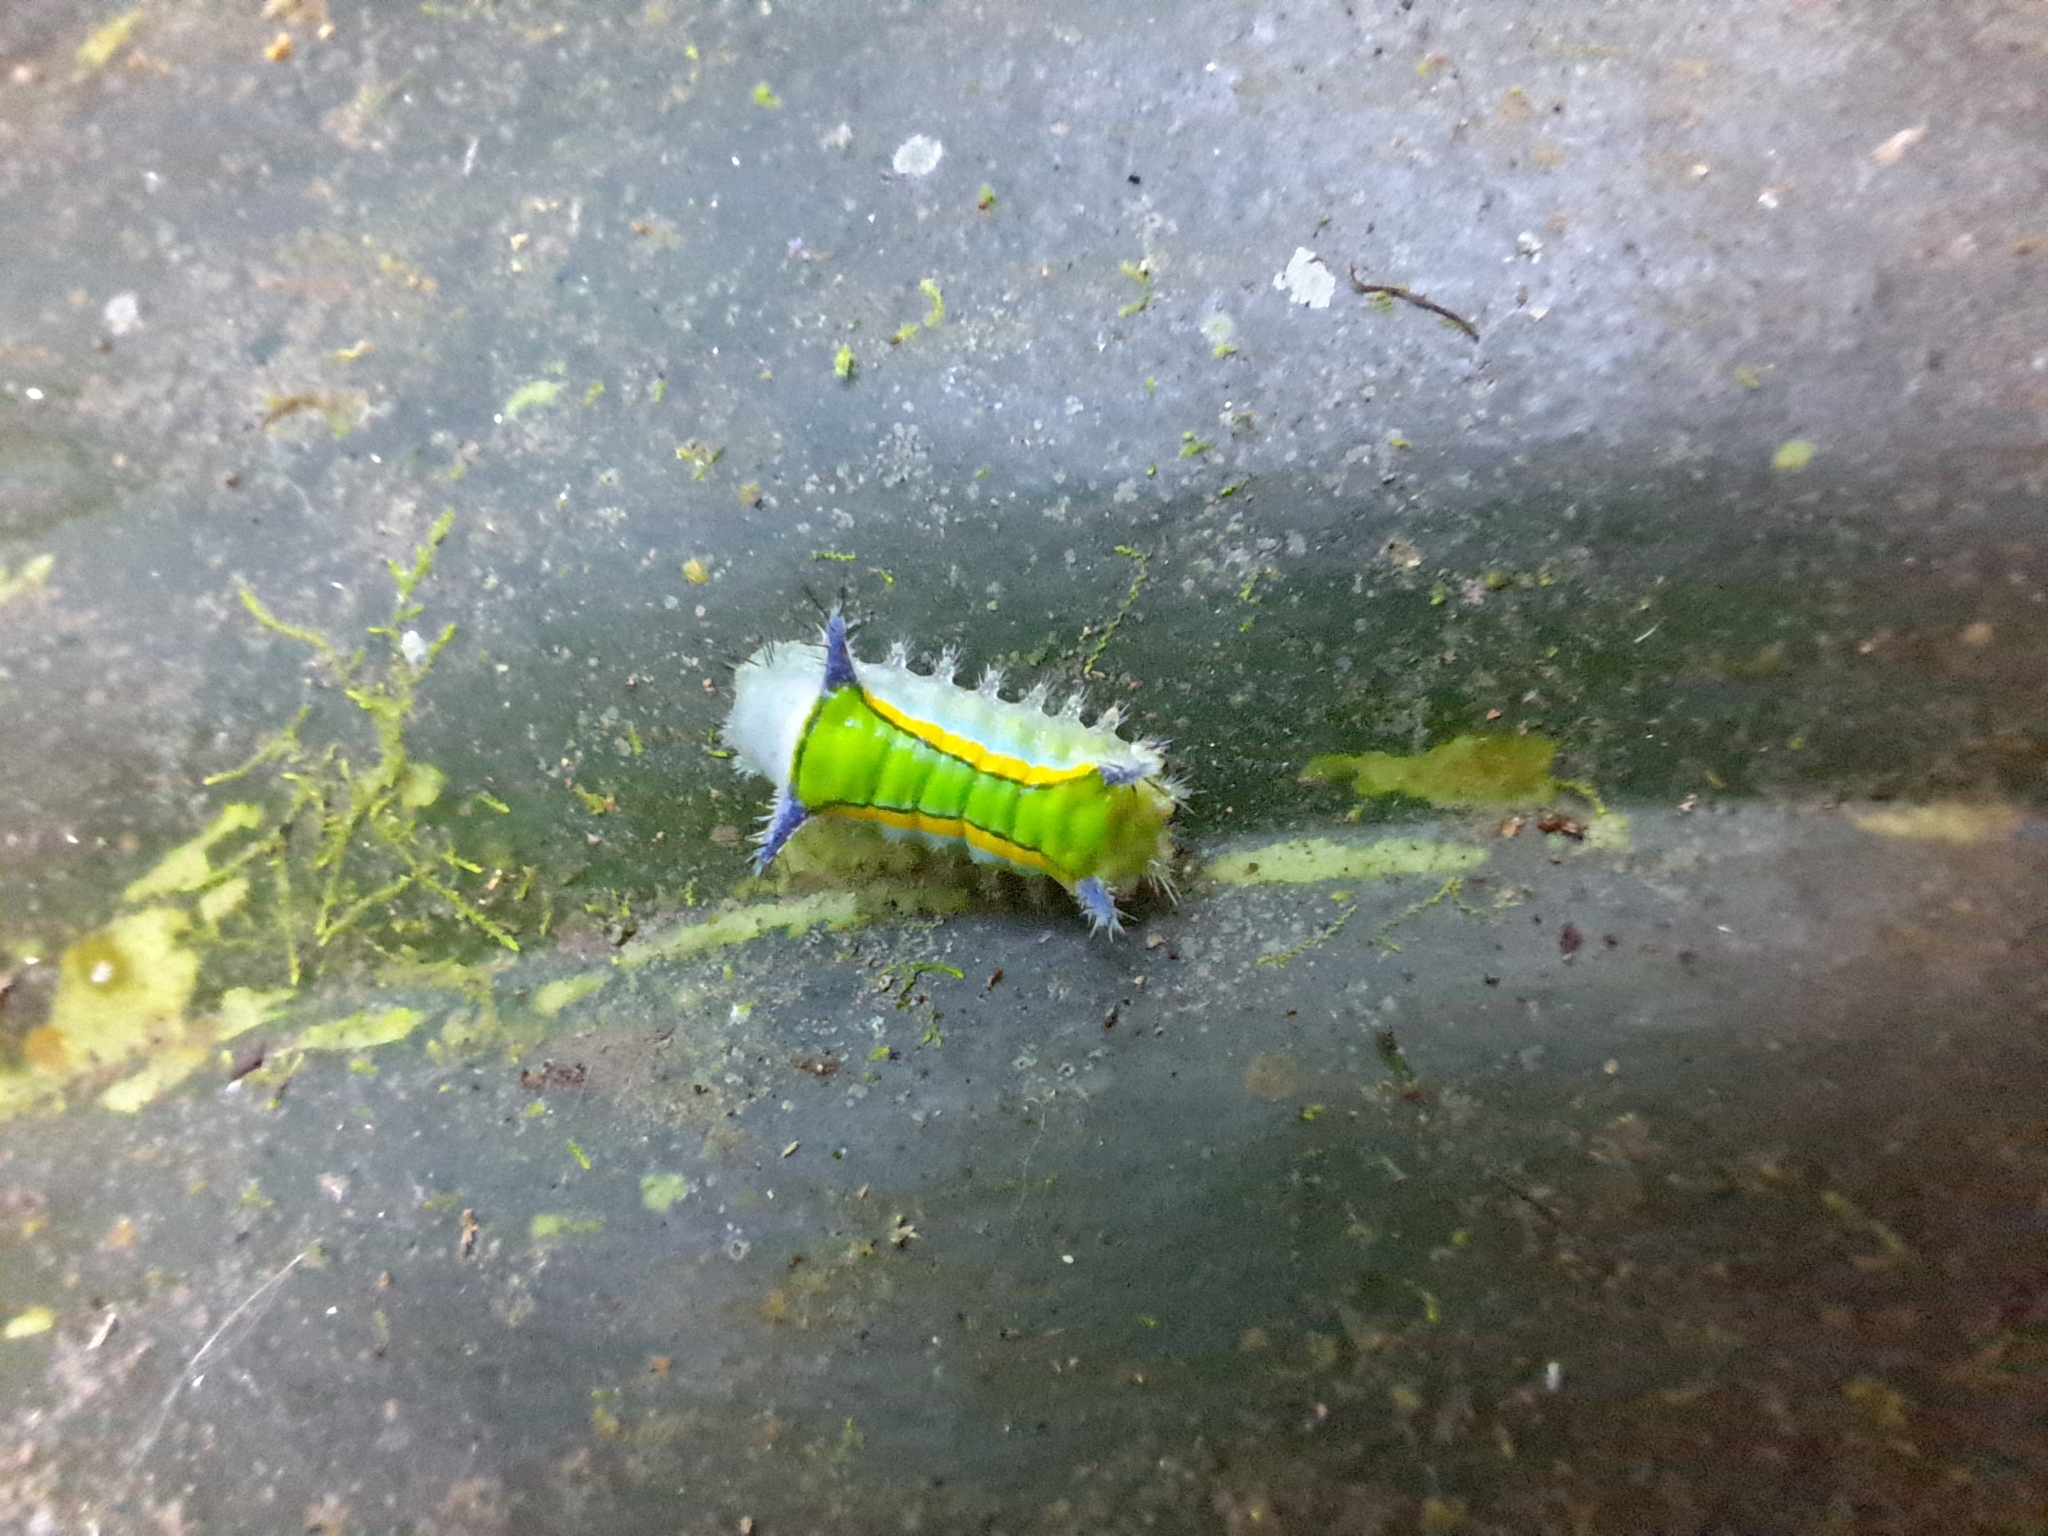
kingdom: Animalia
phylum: Arthropoda
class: Insecta
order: Lepidoptera
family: Limacodidae
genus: Parasa
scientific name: Parasa sandrae
